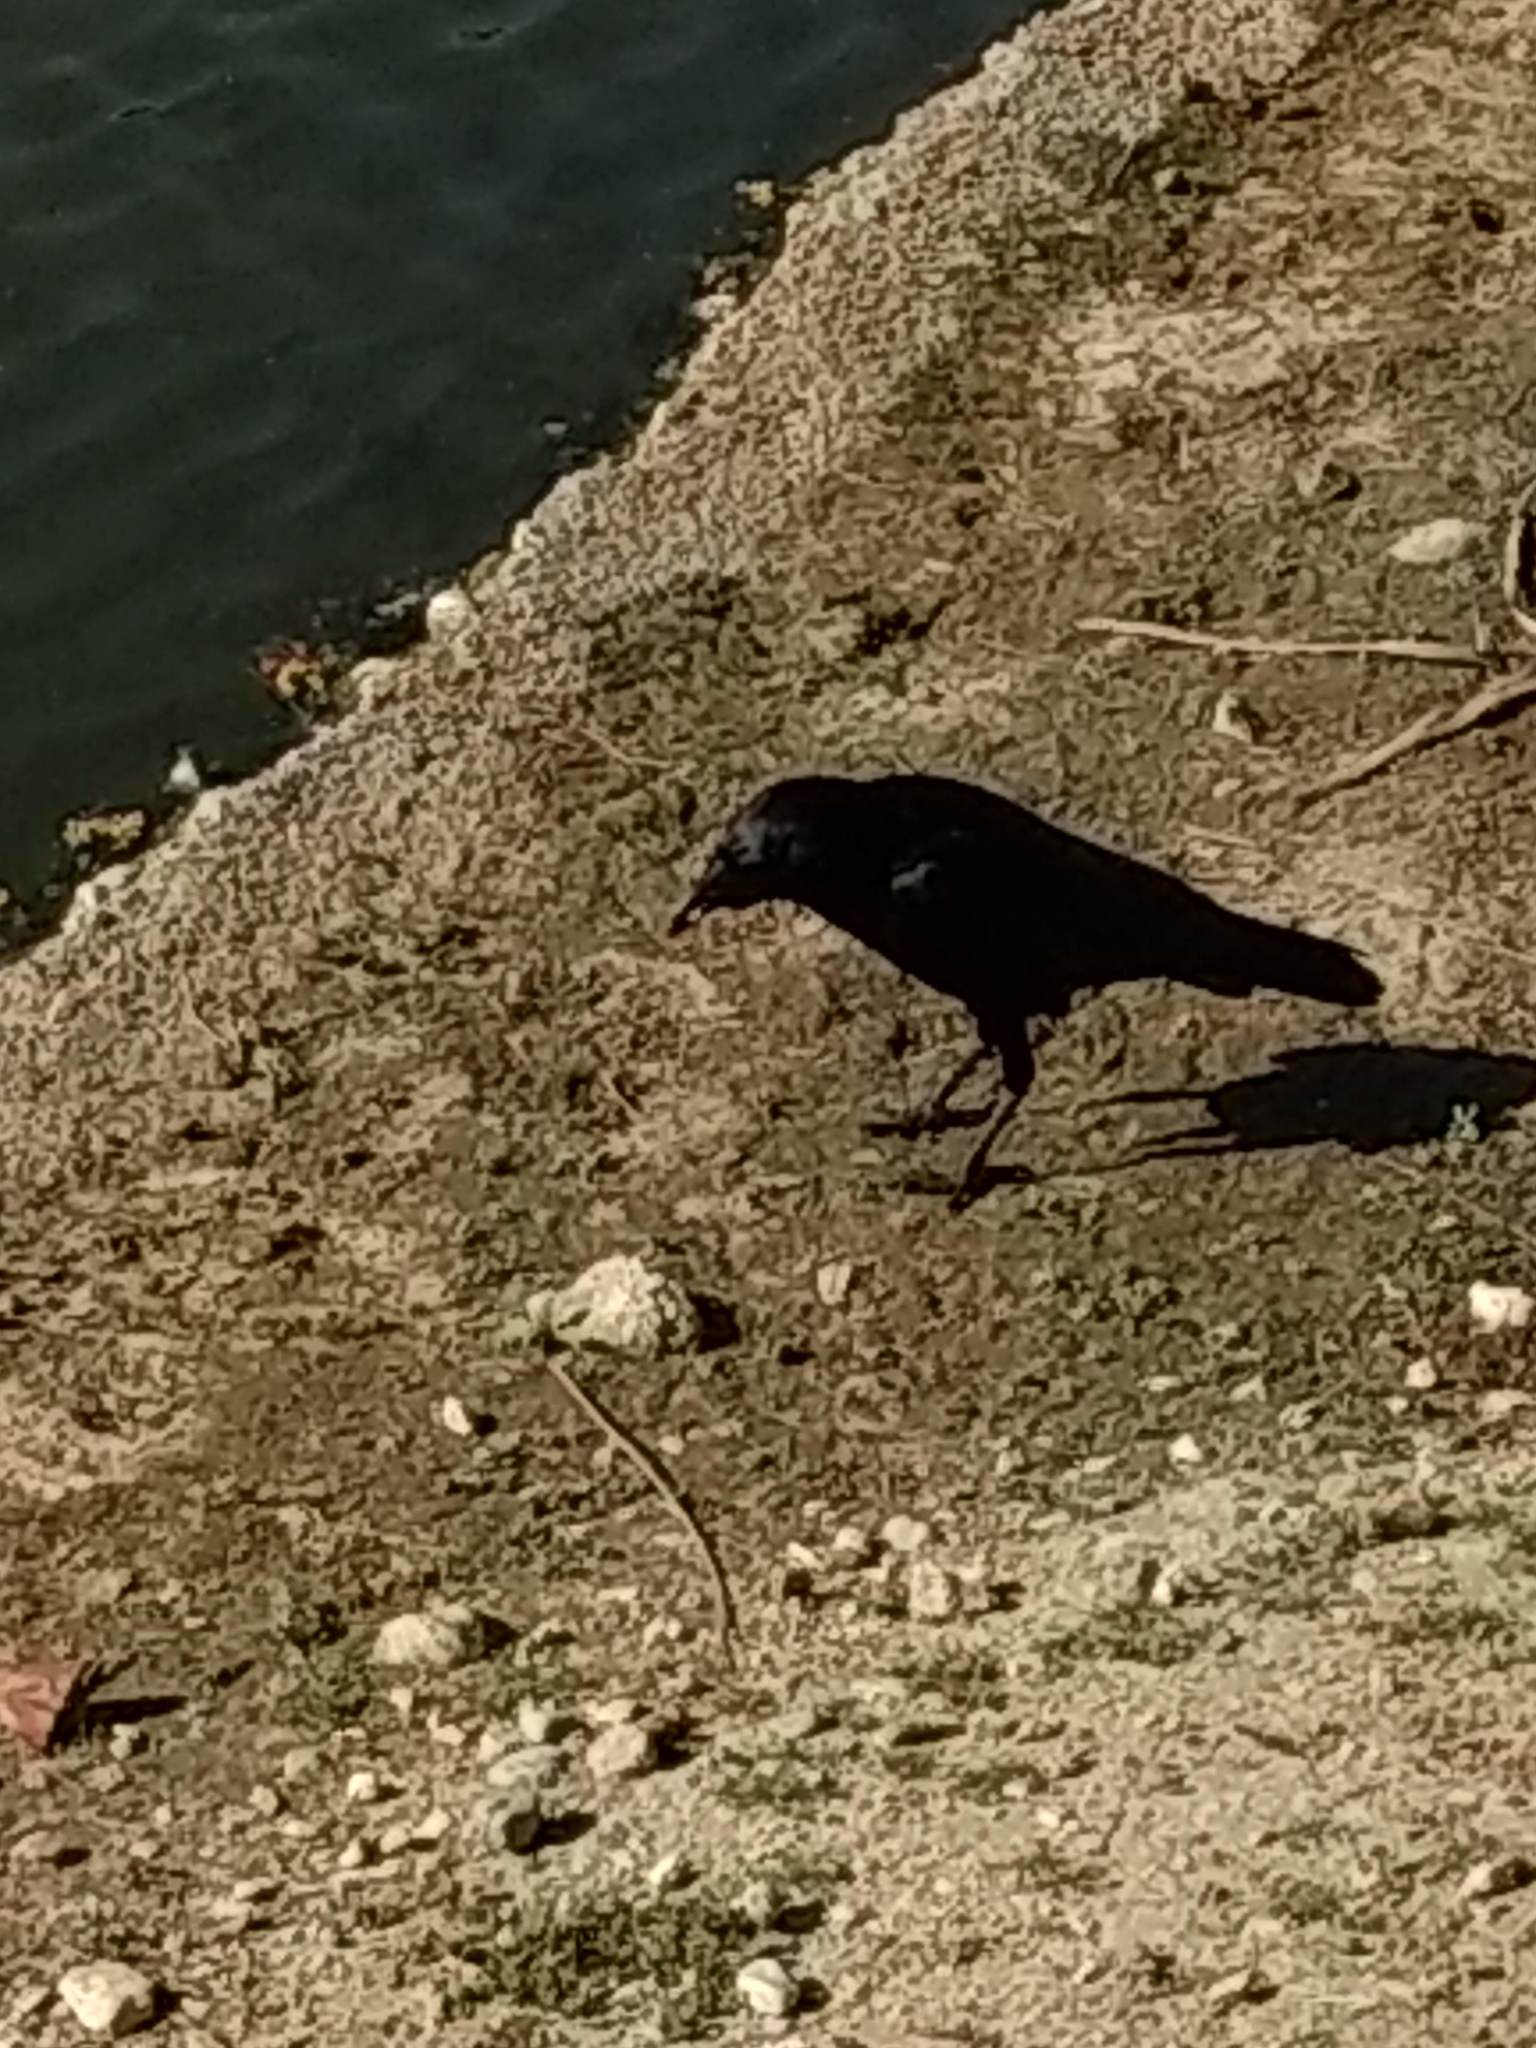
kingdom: Animalia
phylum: Chordata
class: Aves
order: Passeriformes
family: Corvidae
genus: Corvus
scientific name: Corvus brachyrhynchos
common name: American crow
